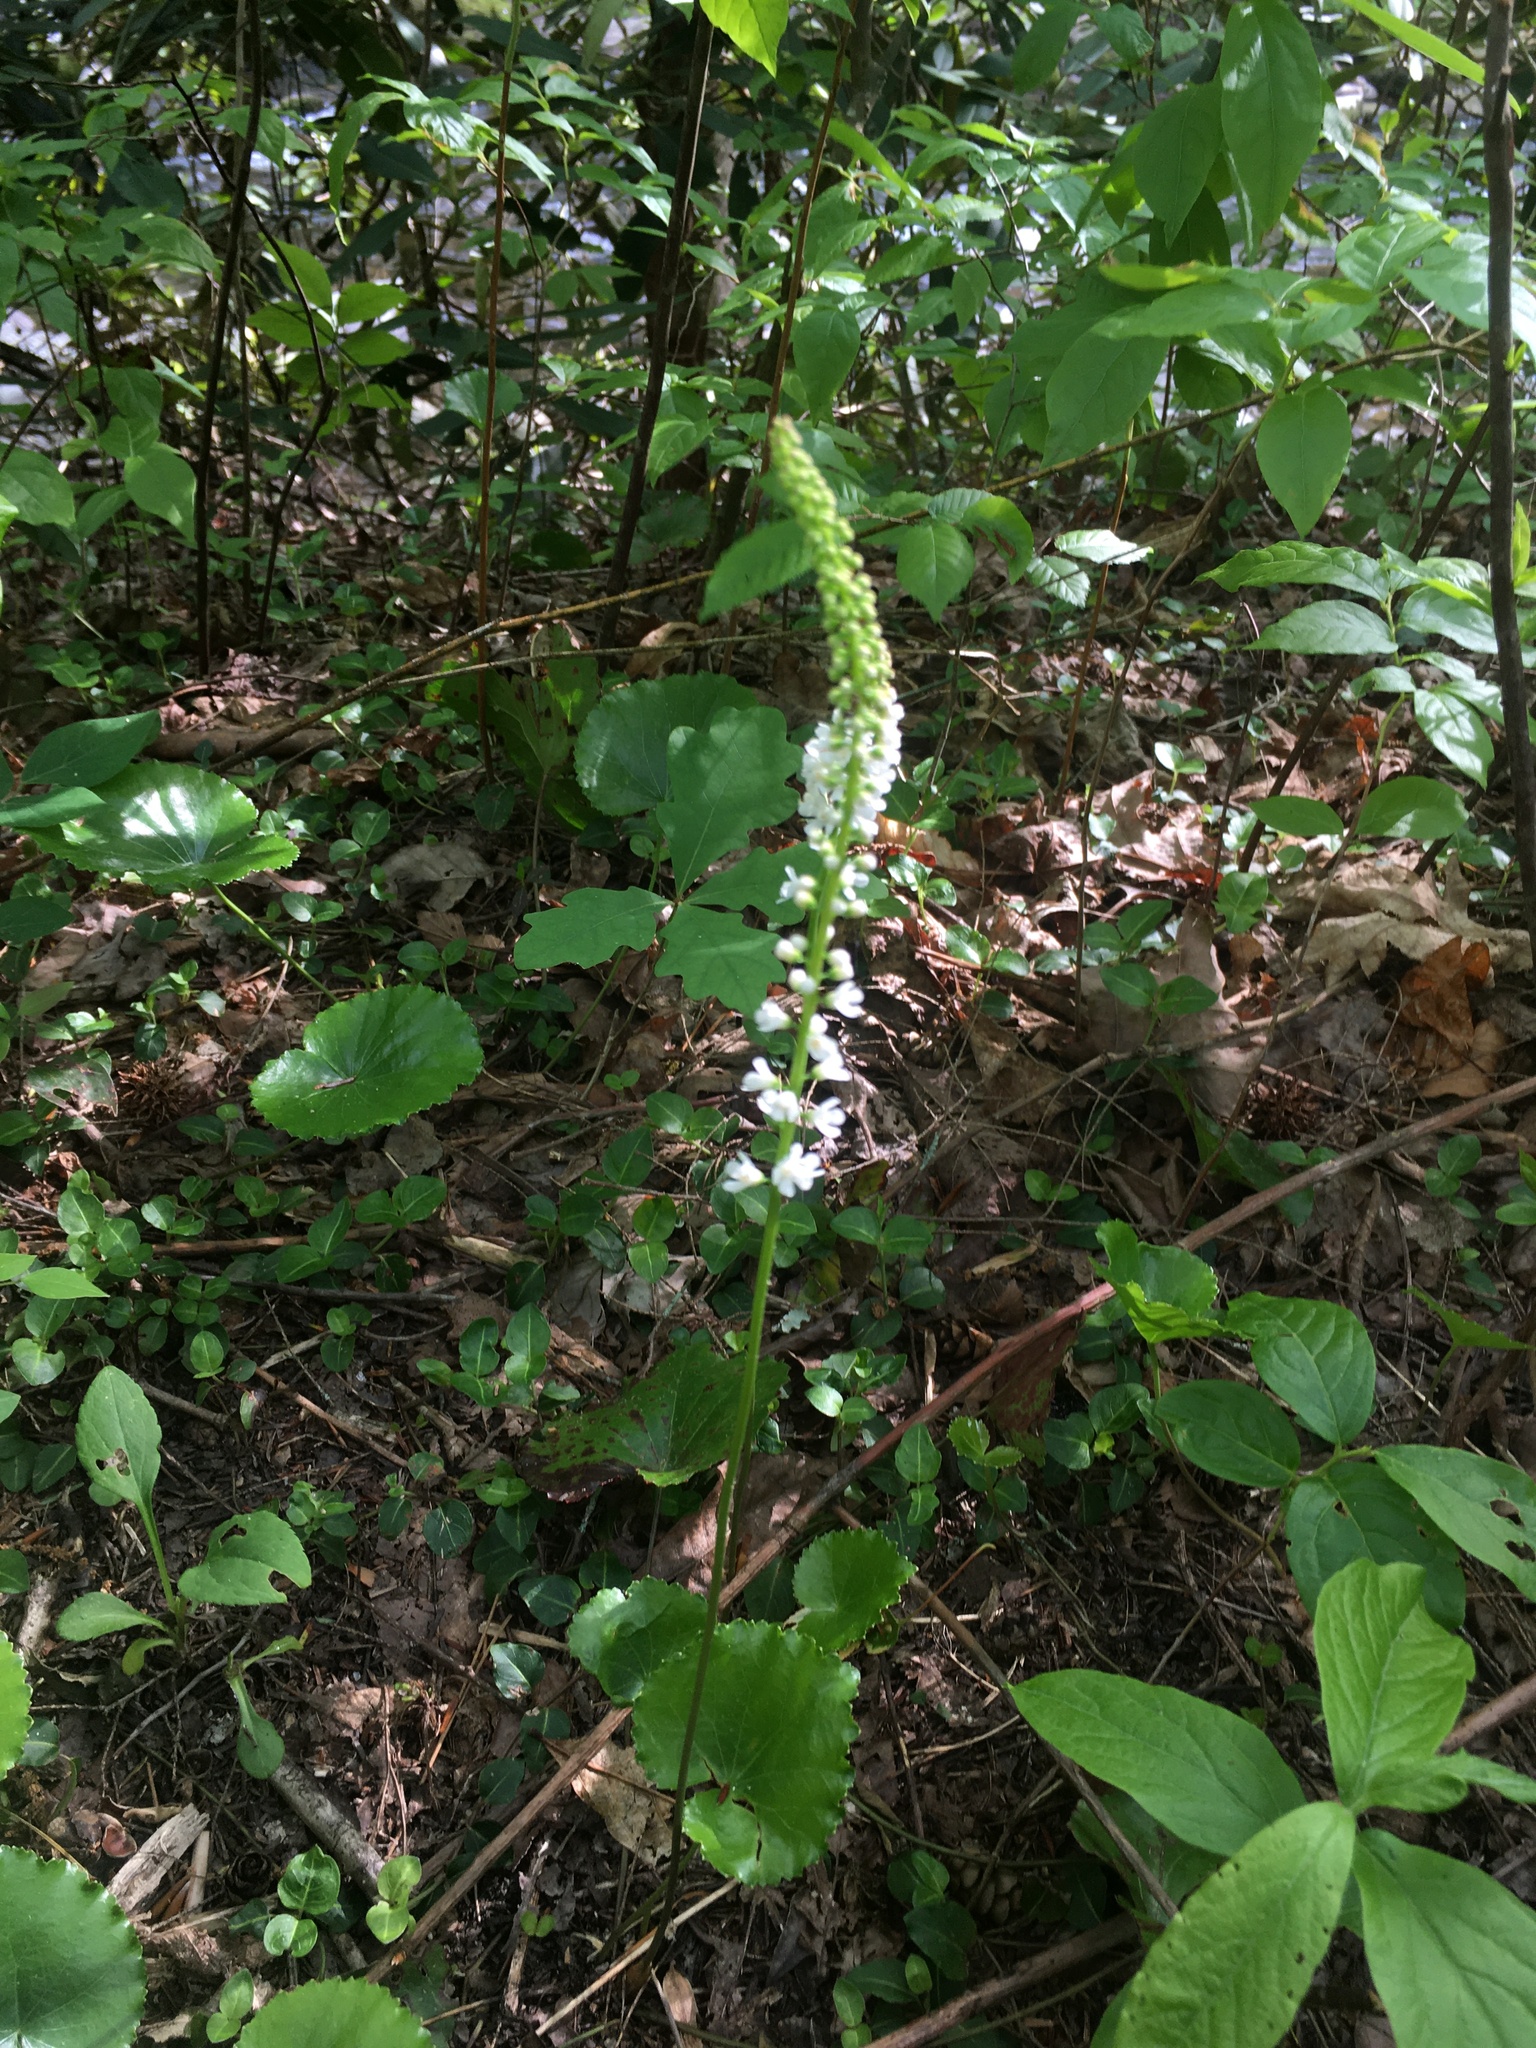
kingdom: Plantae
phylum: Tracheophyta
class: Magnoliopsida
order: Ericales
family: Diapensiaceae
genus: Galax
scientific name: Galax urceolata
